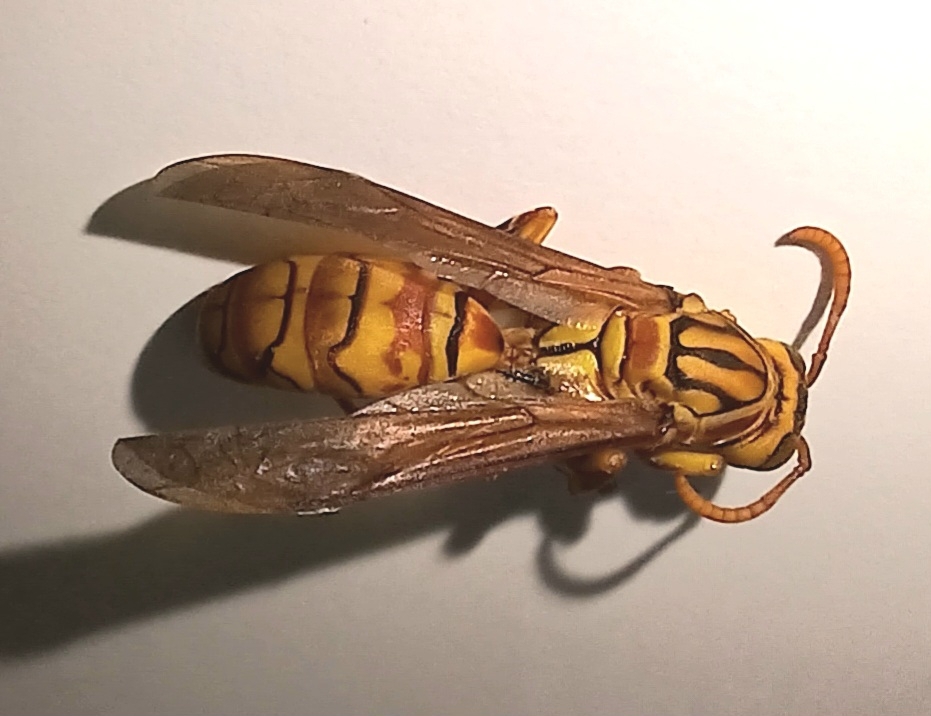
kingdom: Animalia
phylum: Arthropoda
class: Insecta
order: Hymenoptera
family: Eumenidae
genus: Polistes
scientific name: Polistes olivaceus
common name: Paper wasp
